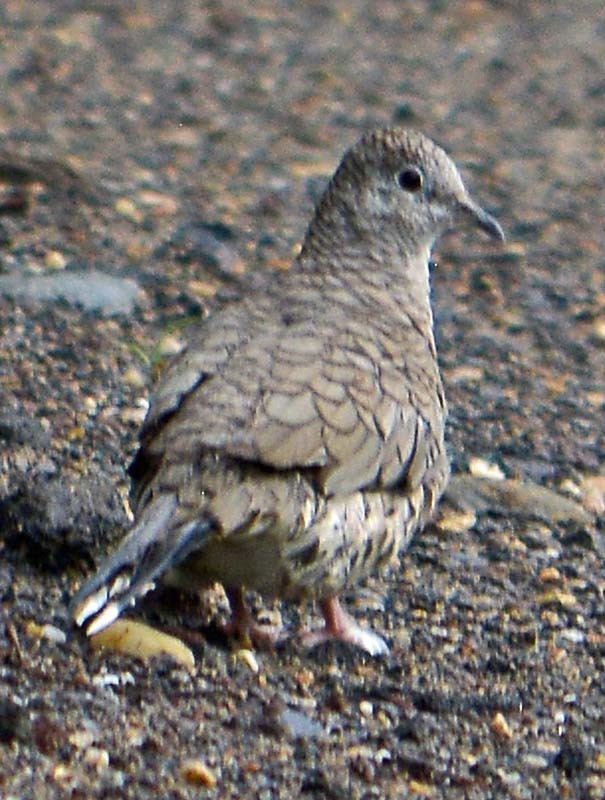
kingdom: Animalia
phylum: Chordata
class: Aves
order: Columbiformes
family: Columbidae
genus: Columbina
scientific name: Columbina inca
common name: Inca dove
